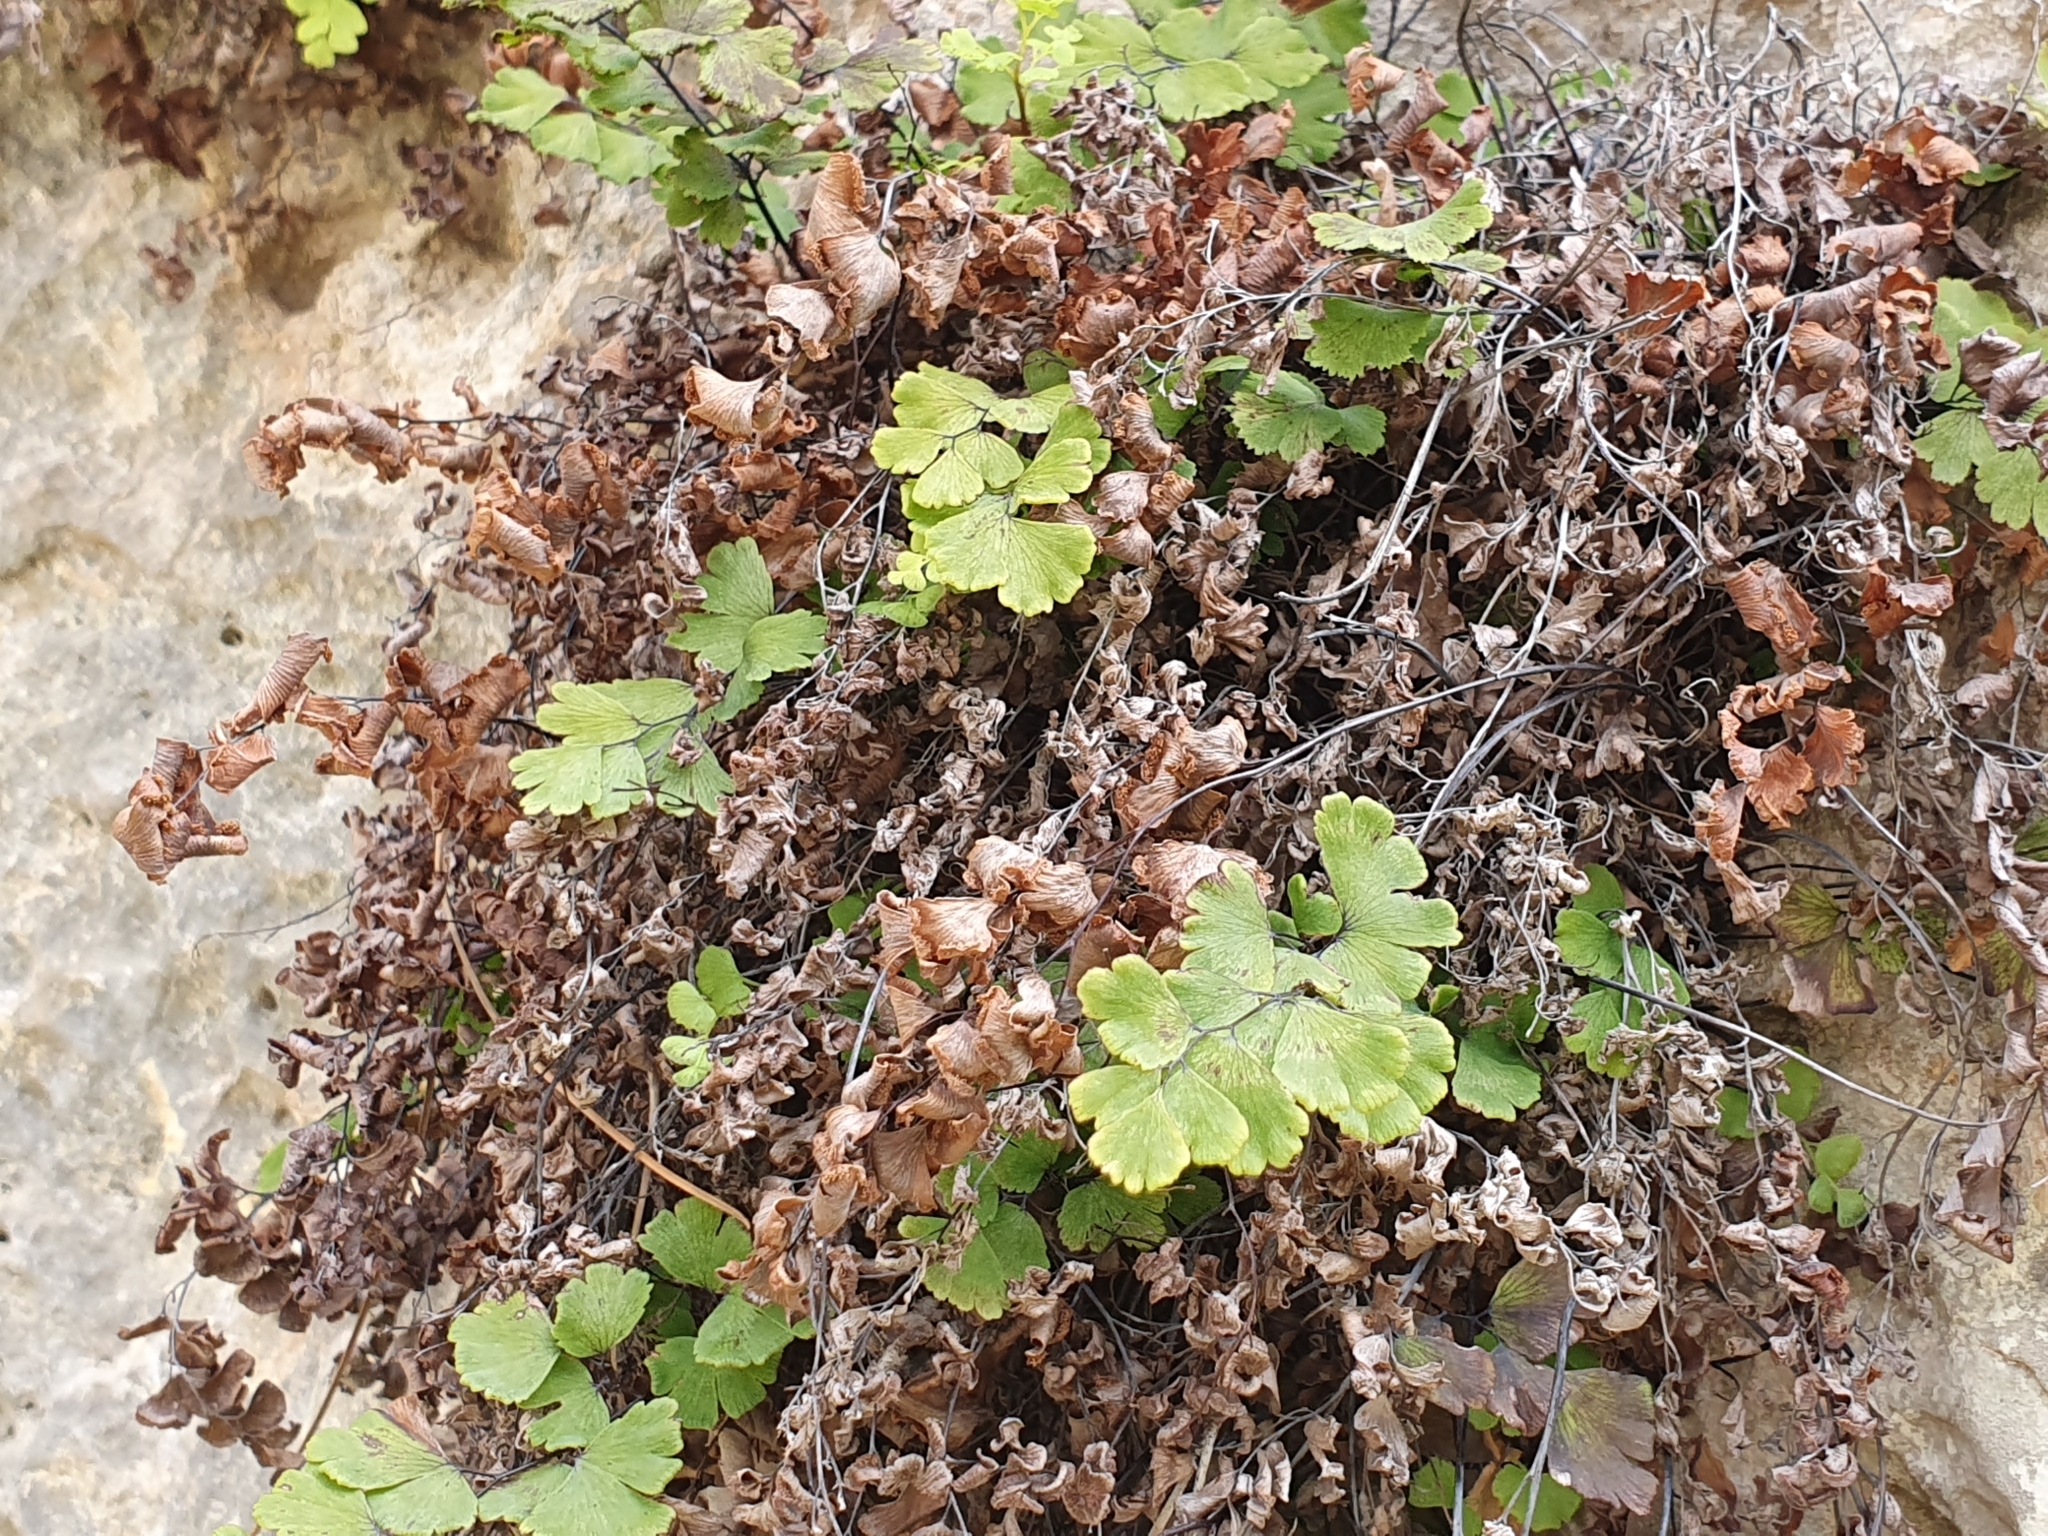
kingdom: Plantae
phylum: Tracheophyta
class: Polypodiopsida
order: Polypodiales
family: Pteridaceae
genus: Adiantum
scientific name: Adiantum capillus-veneris
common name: Maidenhair fern
